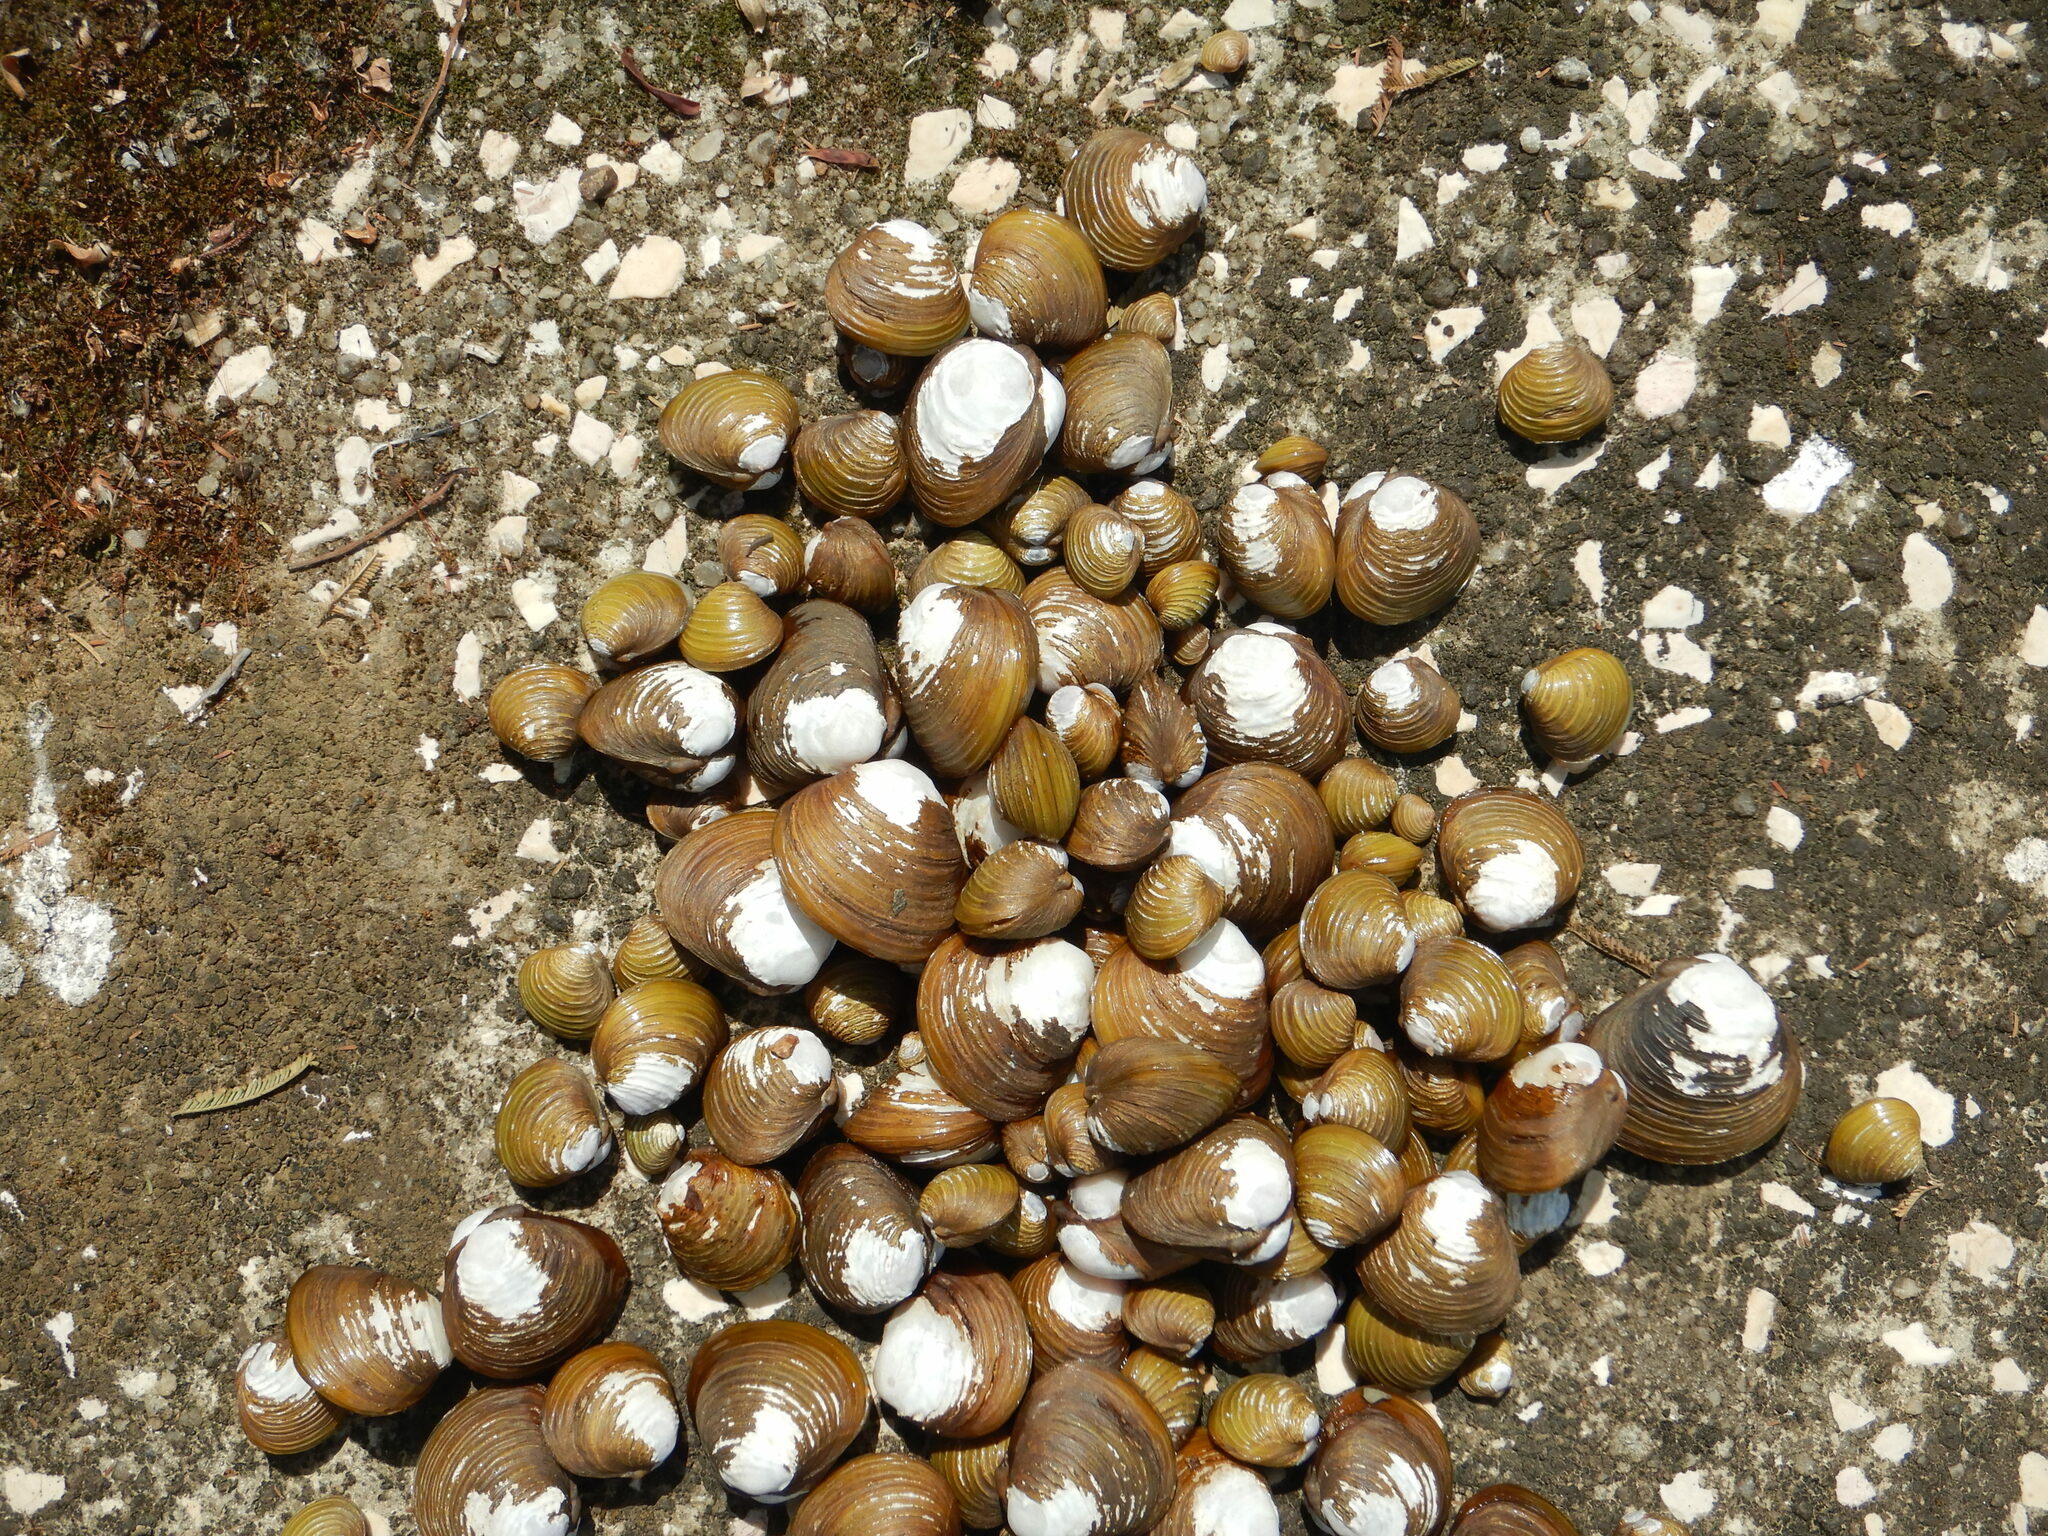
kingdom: Animalia
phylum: Mollusca
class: Bivalvia
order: Venerida
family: Cyrenidae
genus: Corbicula
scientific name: Corbicula fluminea
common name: Asian clam
